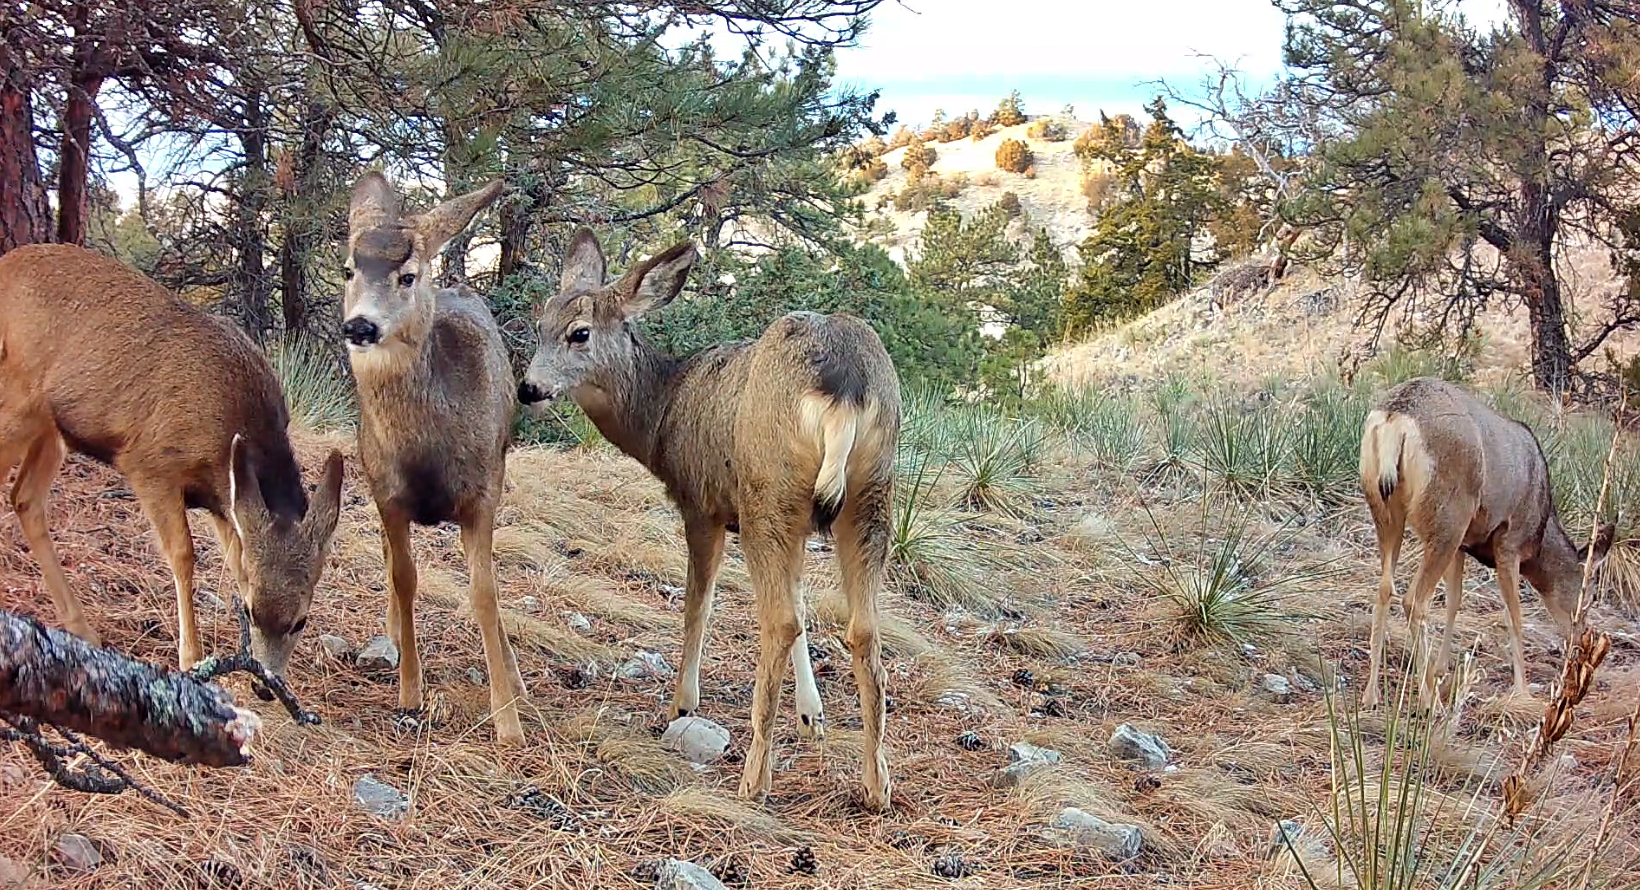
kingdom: Animalia
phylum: Chordata
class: Mammalia
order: Artiodactyla
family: Cervidae
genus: Odocoileus
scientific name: Odocoileus hemionus
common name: Mule deer
